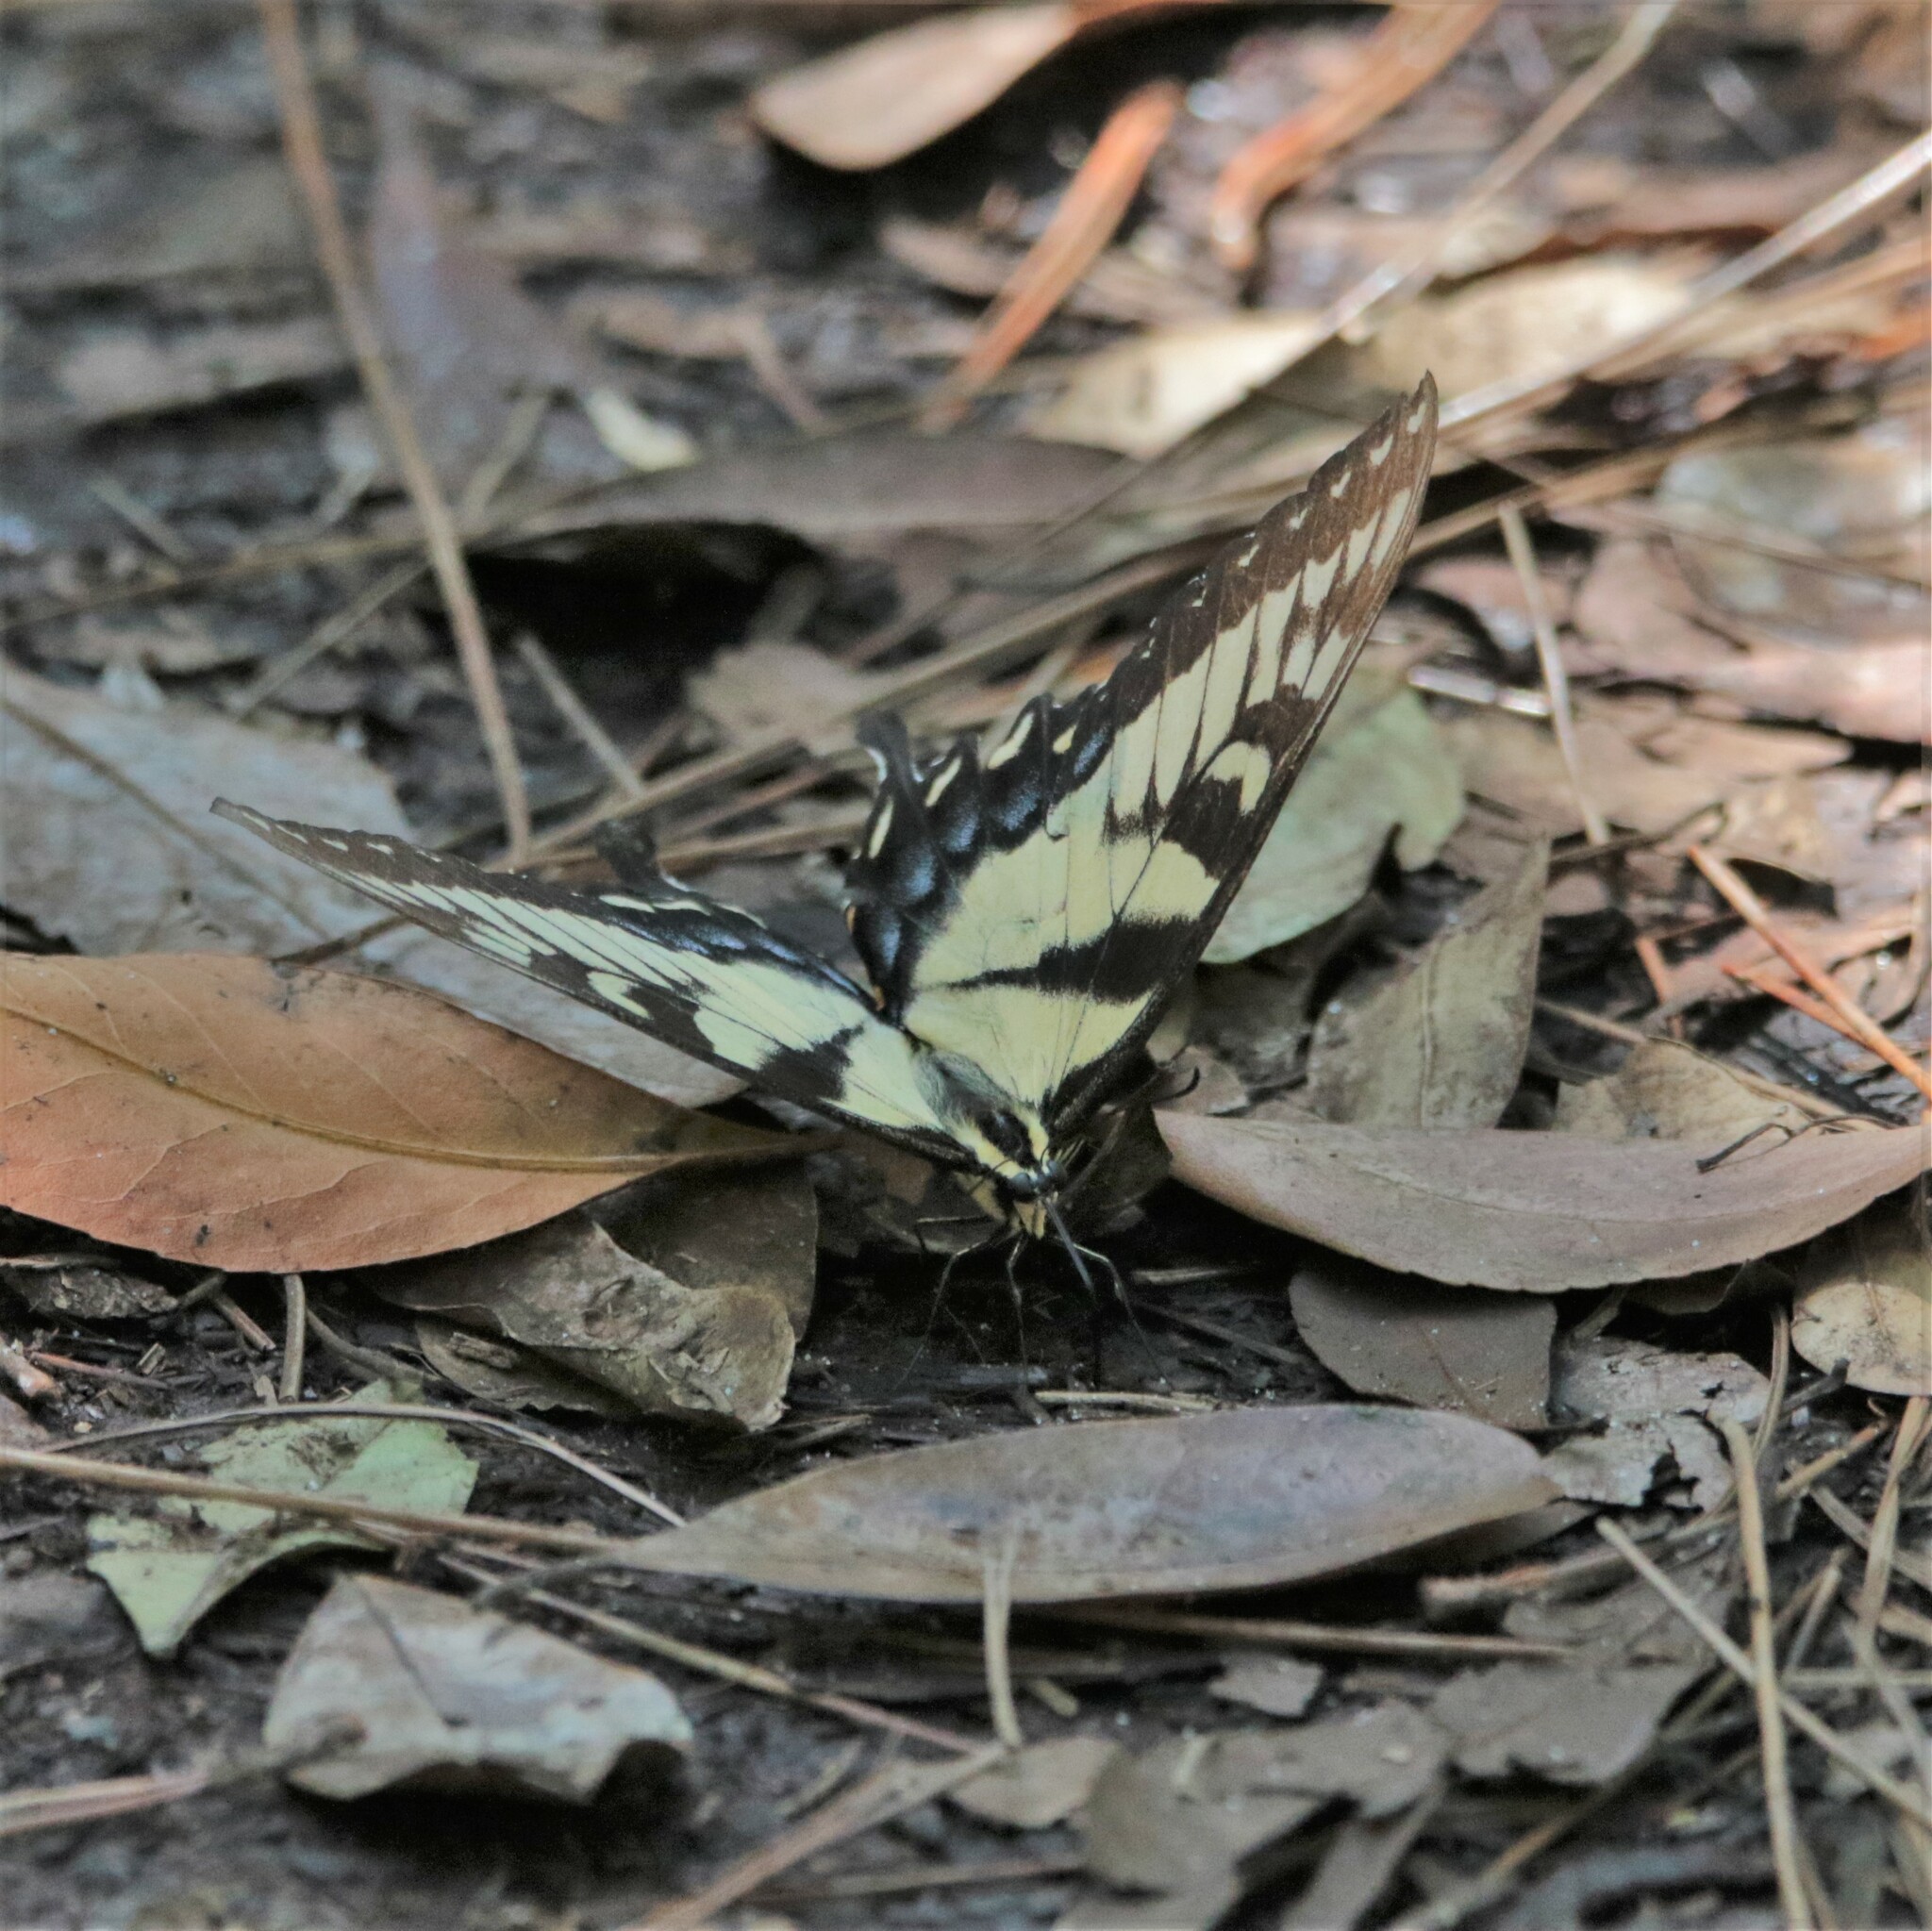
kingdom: Animalia
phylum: Arthropoda
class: Insecta
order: Lepidoptera
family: Papilionidae
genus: Papilio
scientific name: Papilio glaucus
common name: Tiger swallowtail
